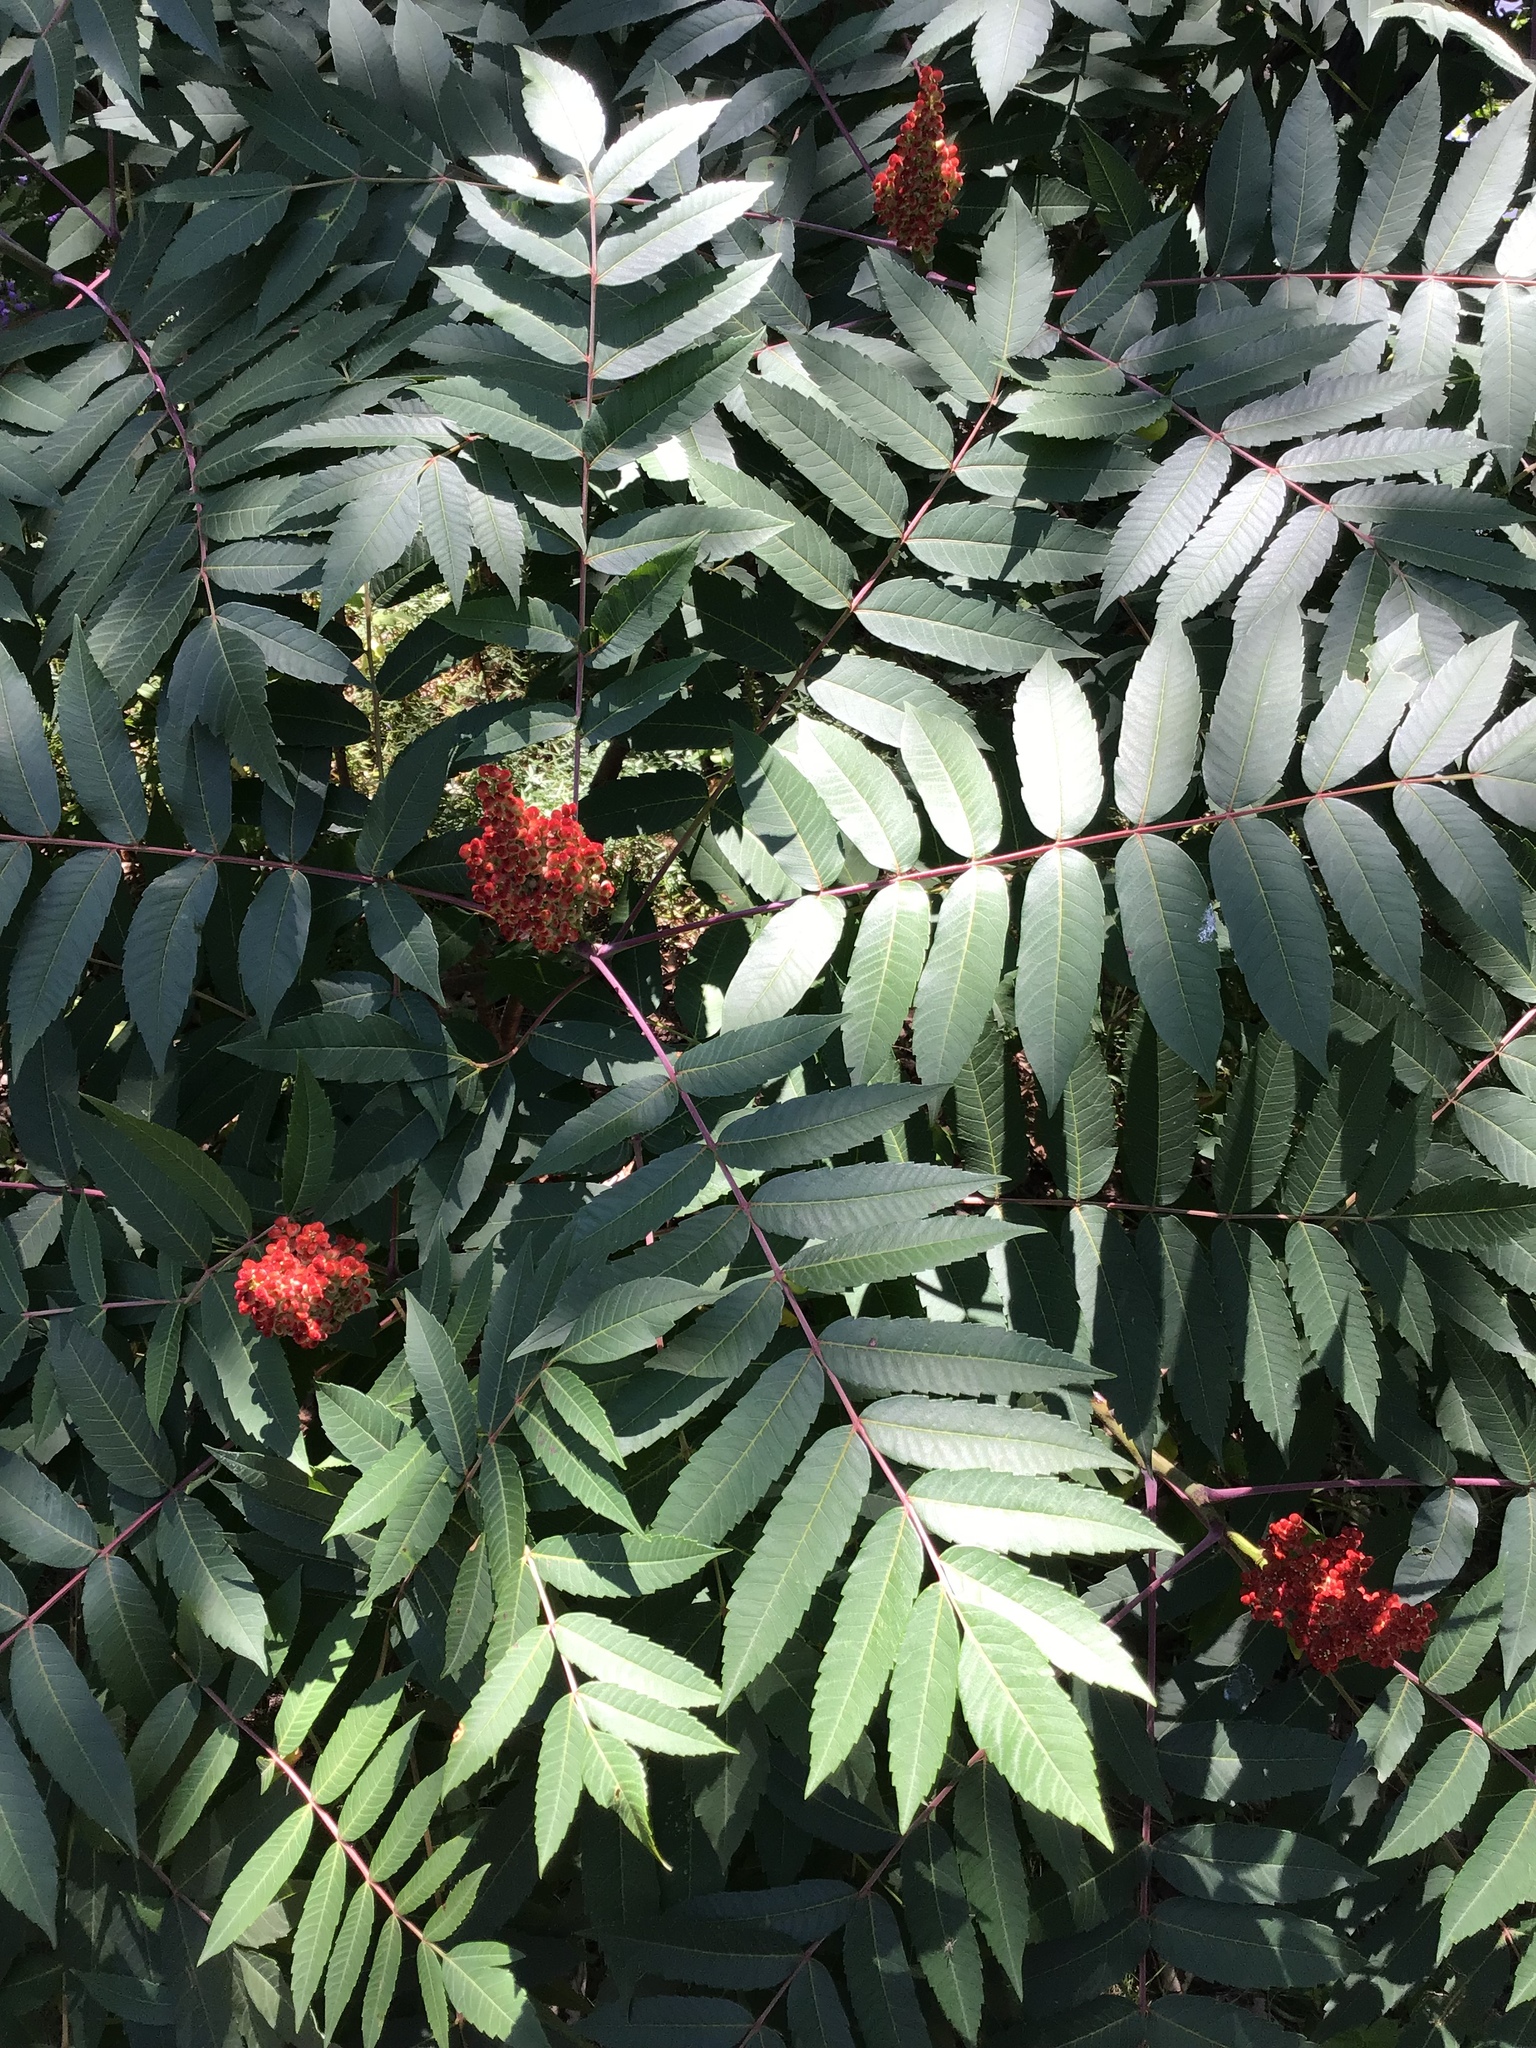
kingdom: Plantae
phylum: Tracheophyta
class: Magnoliopsida
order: Sapindales
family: Anacardiaceae
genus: Rhus
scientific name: Rhus glabra
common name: Scarlet sumac
